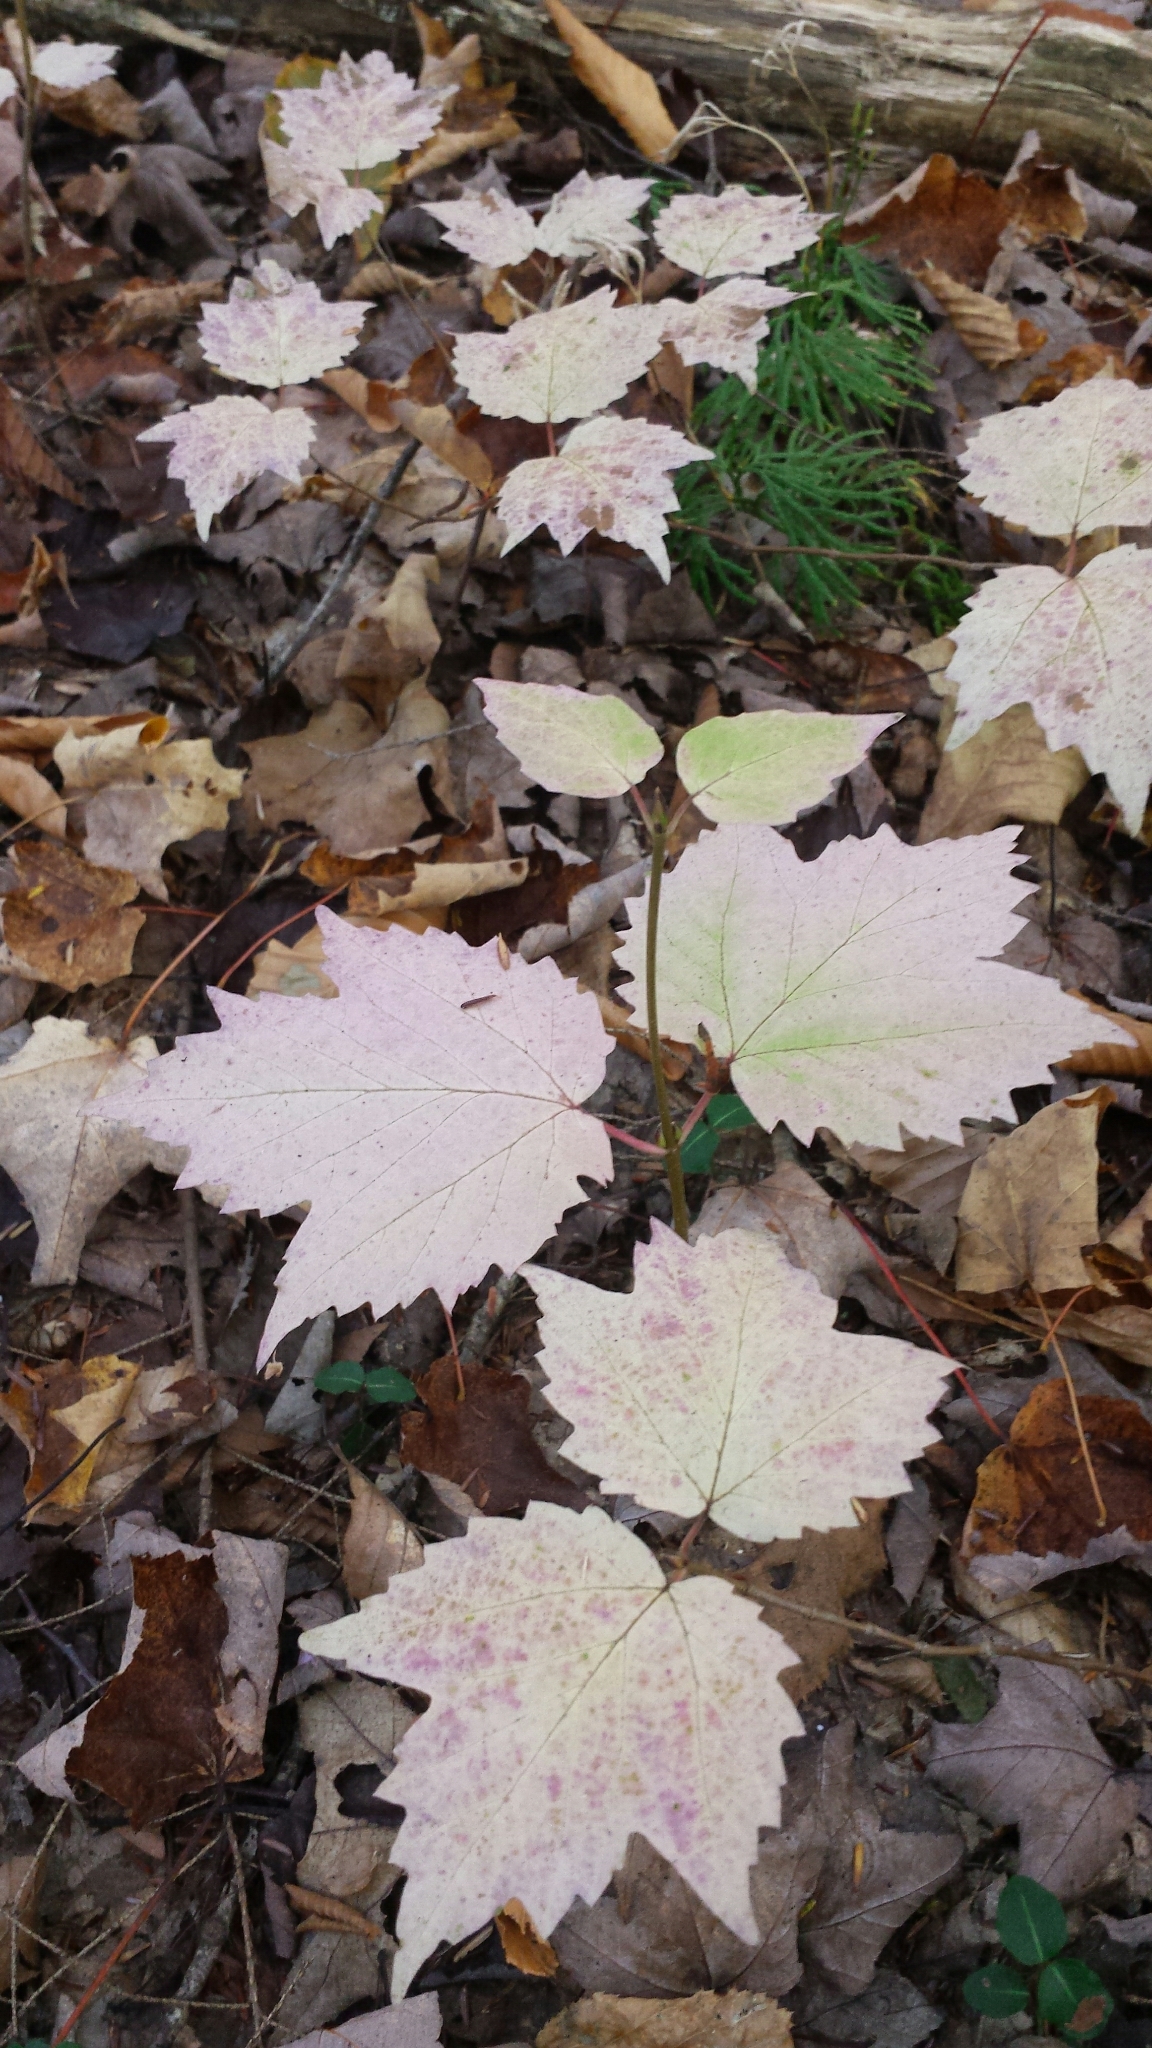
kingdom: Plantae
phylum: Tracheophyta
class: Magnoliopsida
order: Dipsacales
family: Viburnaceae
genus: Viburnum
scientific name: Viburnum acerifolium
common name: Dockmackie
